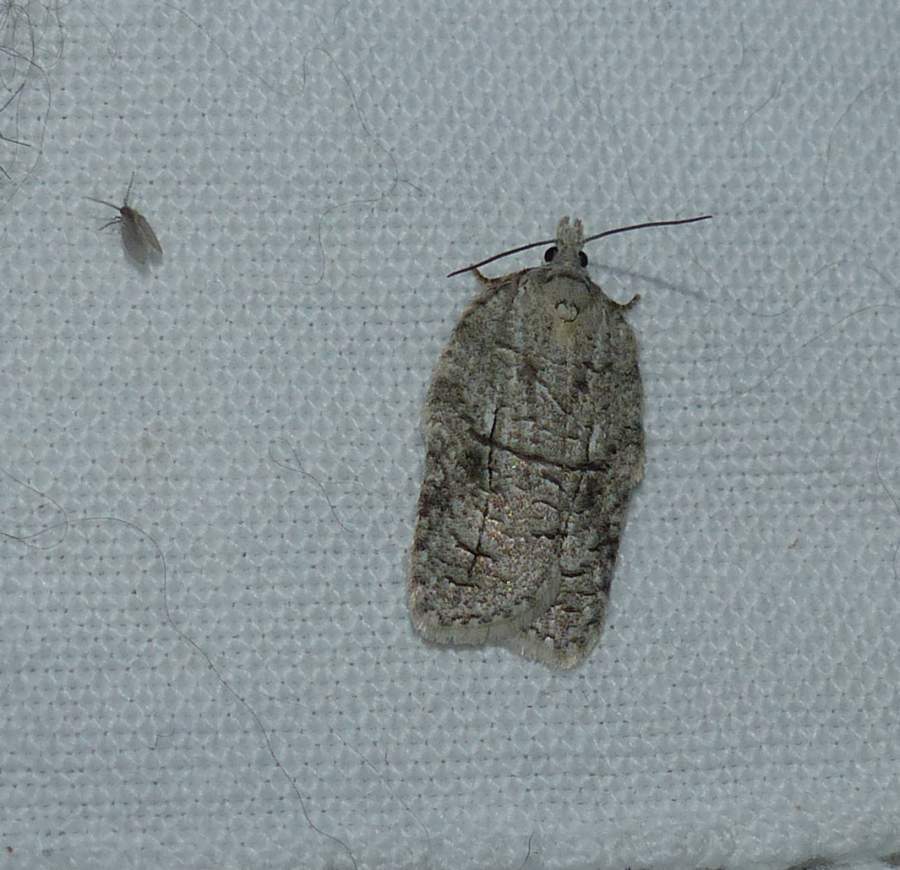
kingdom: Animalia
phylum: Arthropoda
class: Insecta
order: Lepidoptera
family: Tortricidae
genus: Acleris
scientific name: Acleris nigrolinea
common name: Black-lined acleris
